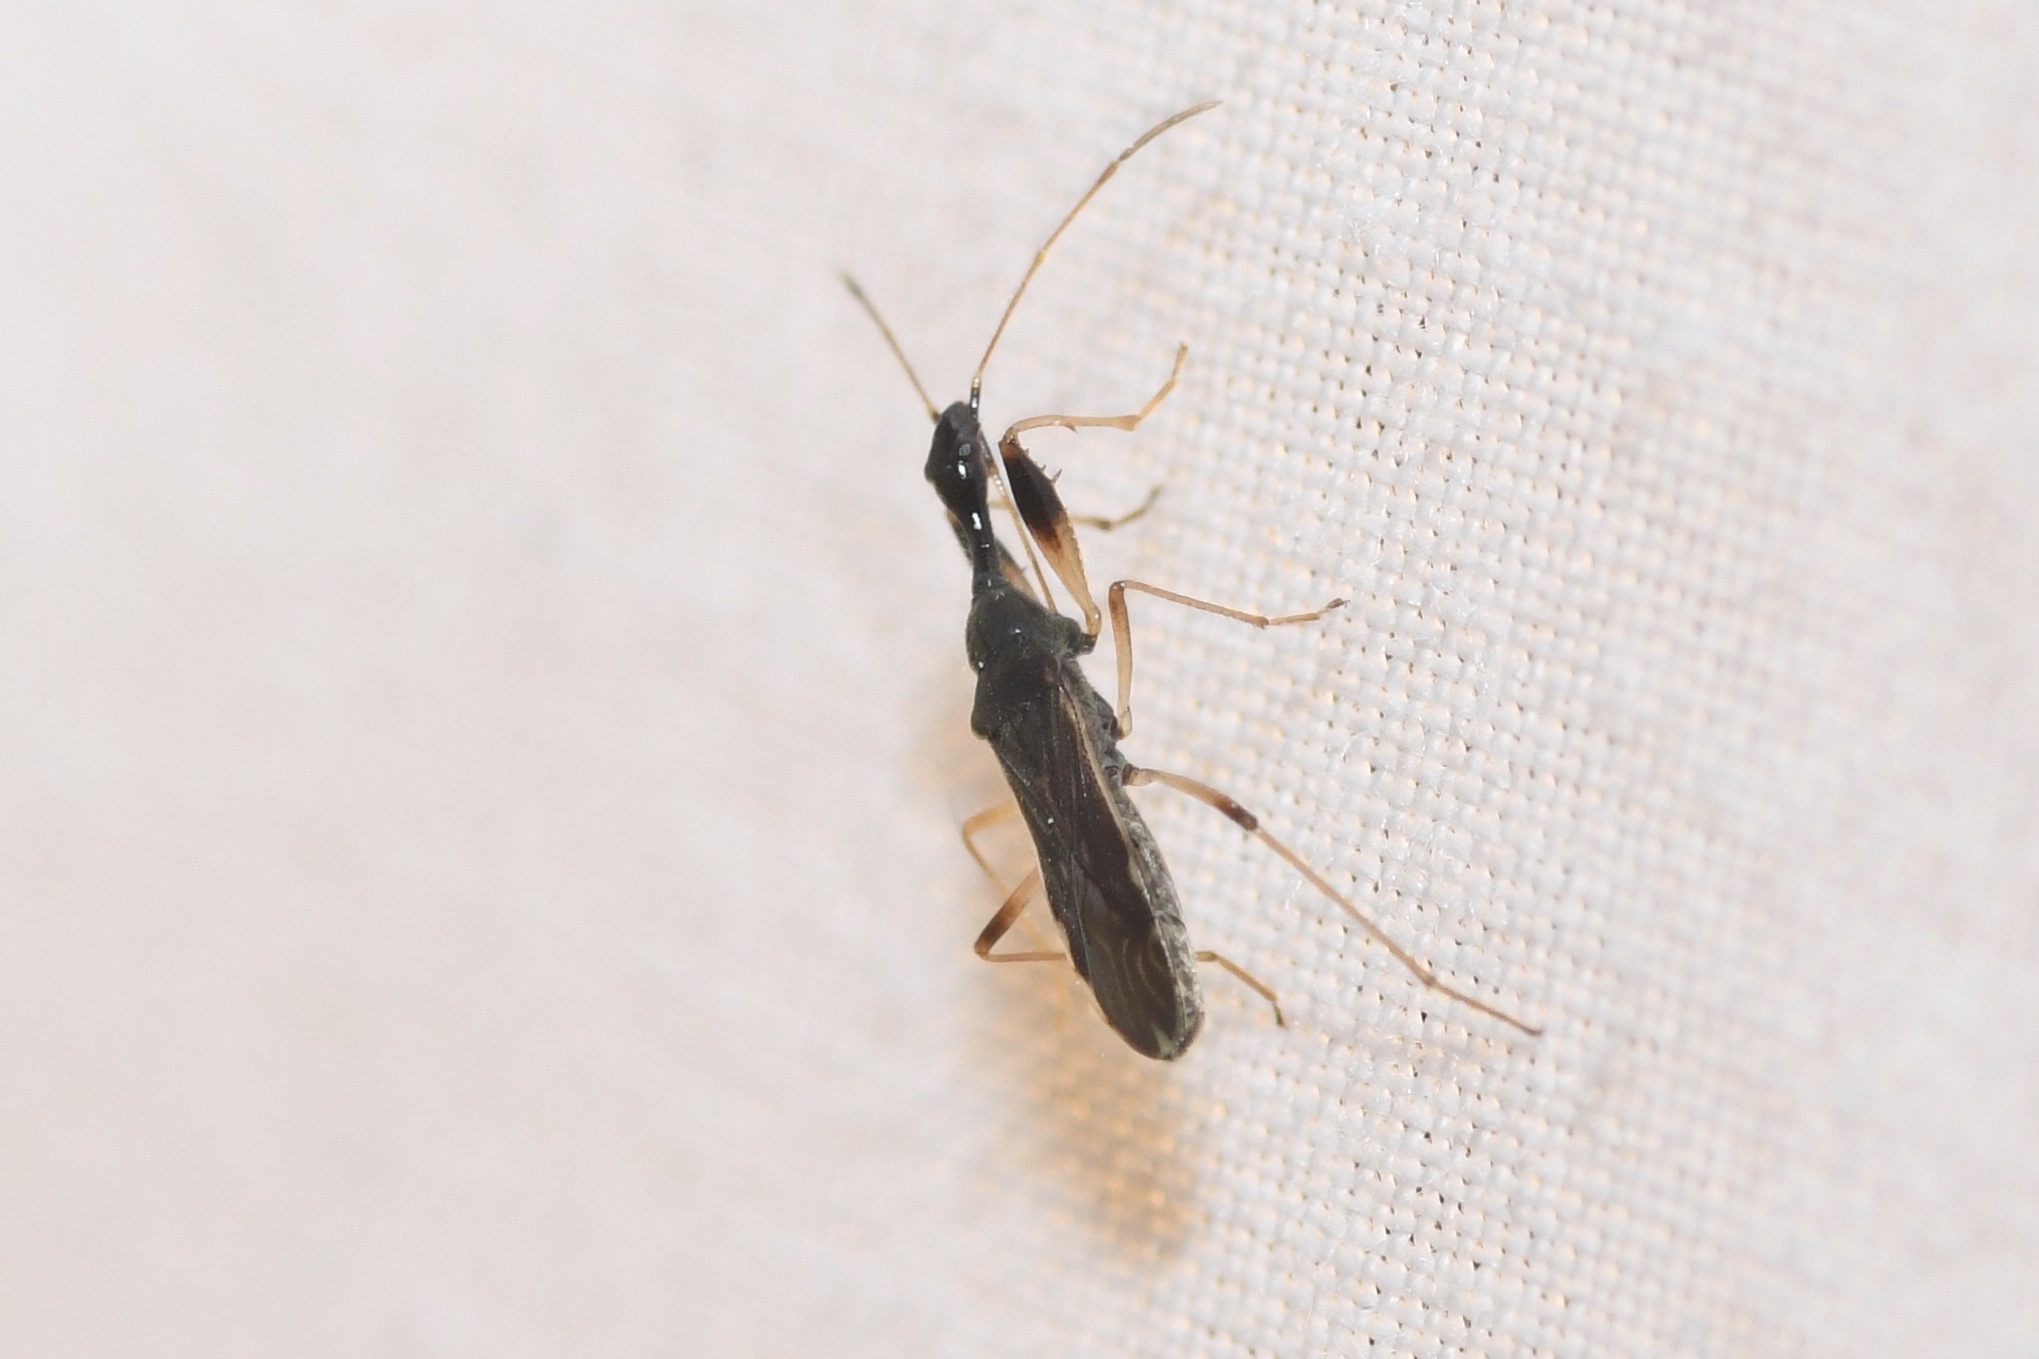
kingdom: Animalia
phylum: Arthropoda
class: Insecta
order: Hemiptera
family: Rhyparochromidae
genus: Myodocha
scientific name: Myodocha serripes
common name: Long-necked seed bug
